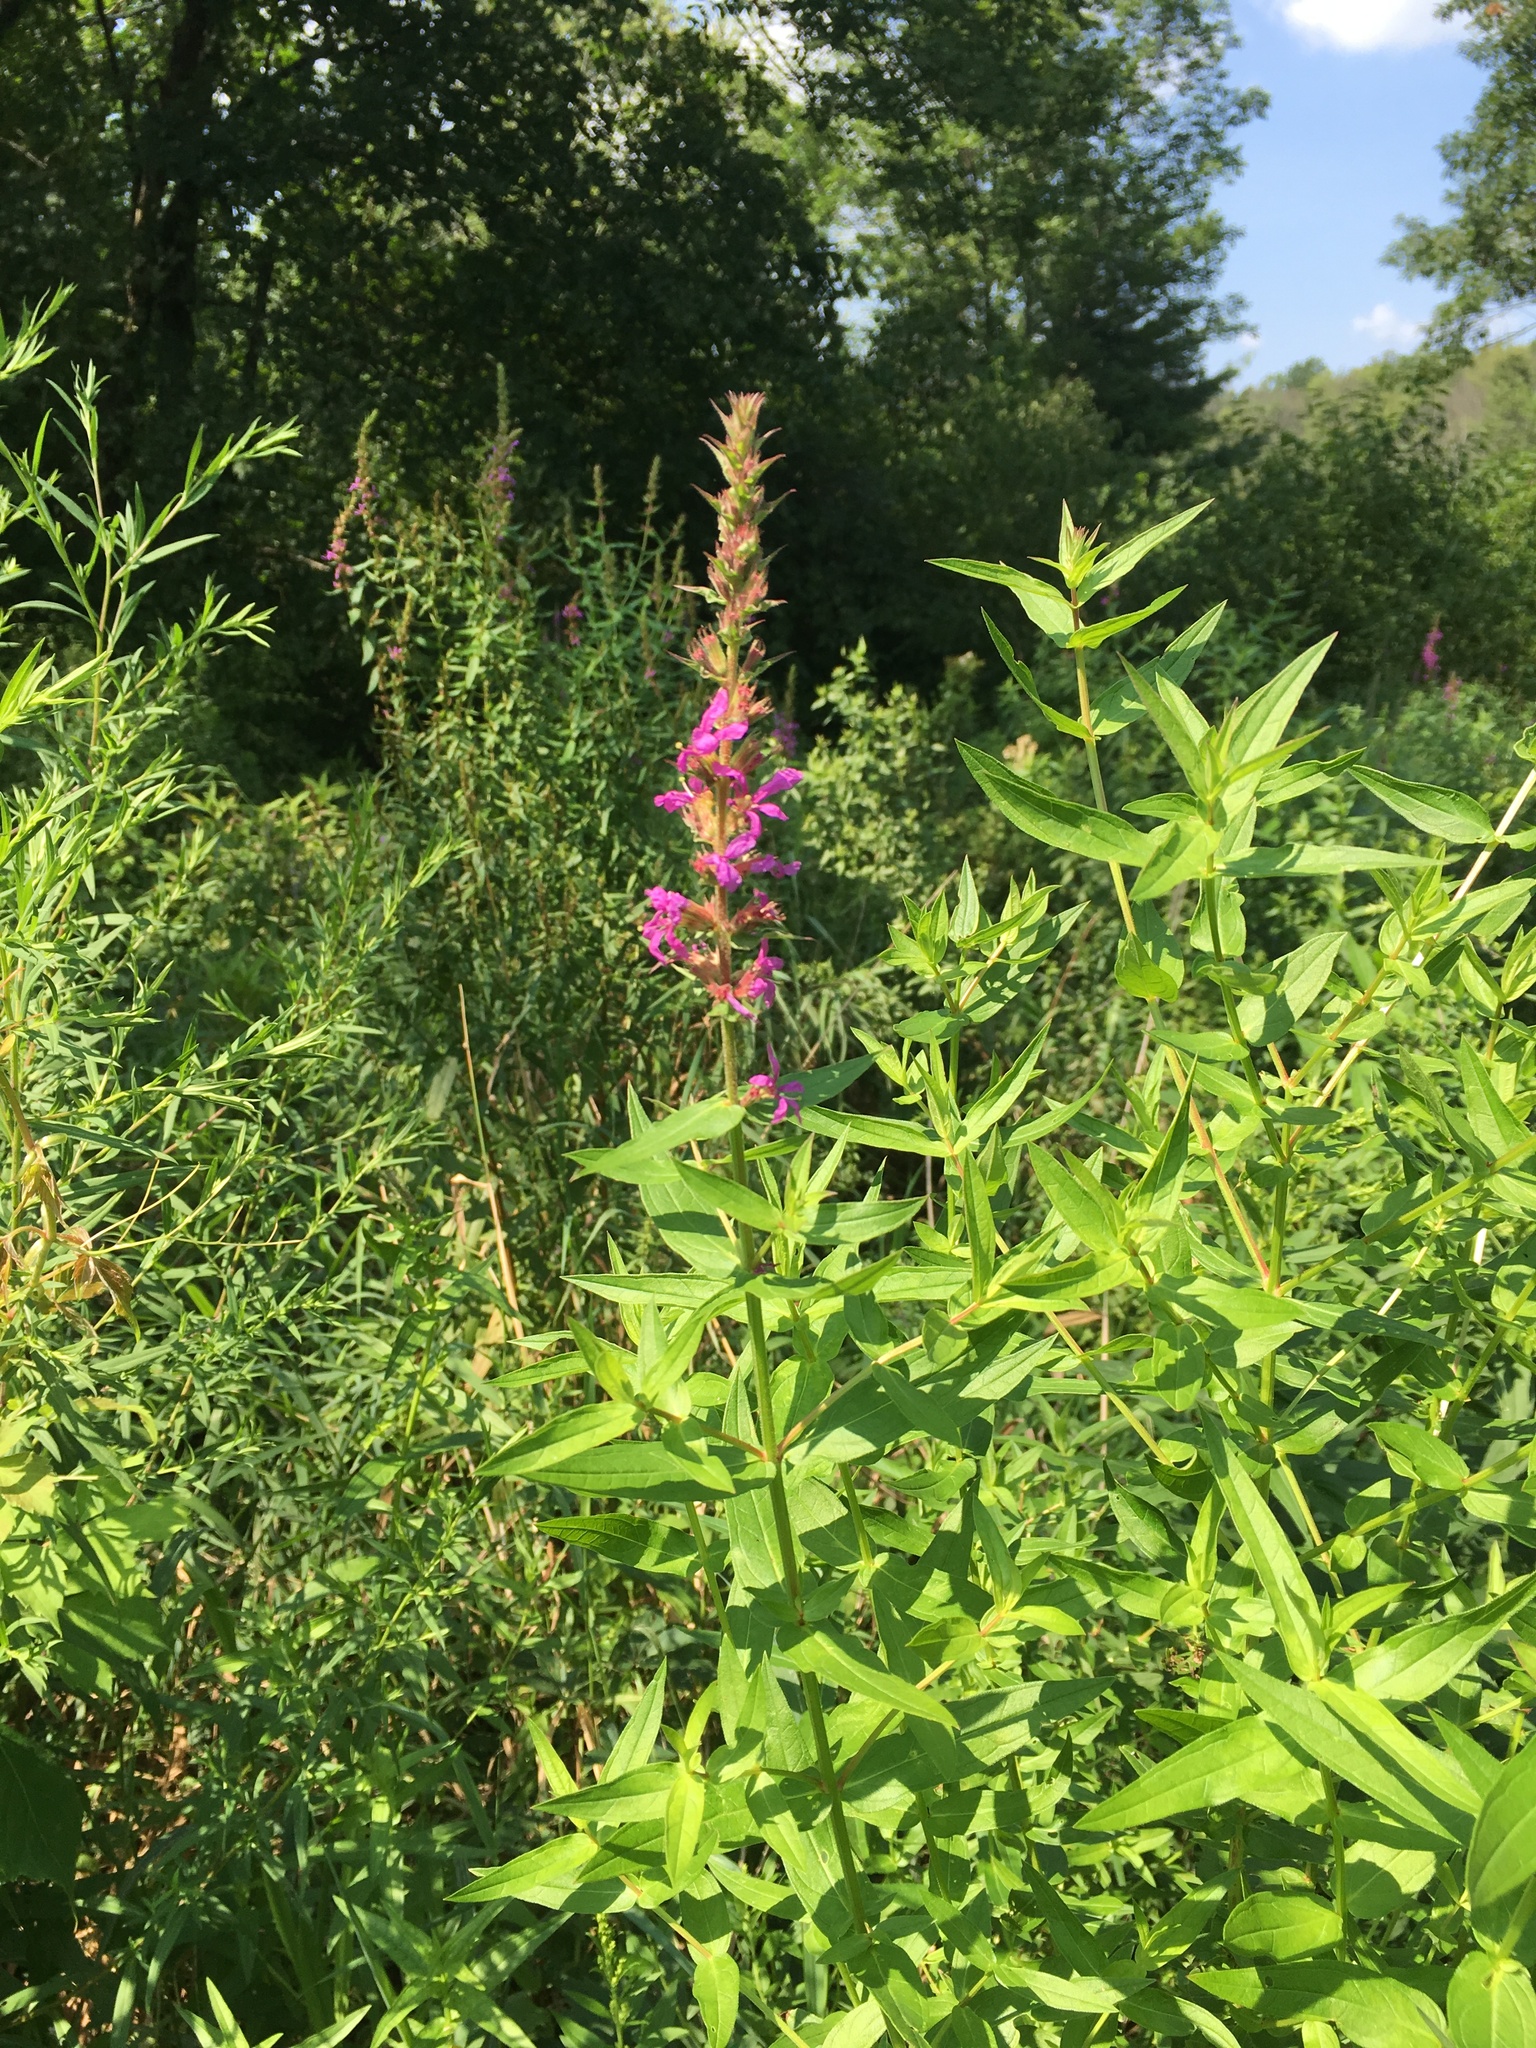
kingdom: Plantae
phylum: Tracheophyta
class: Magnoliopsida
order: Myrtales
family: Lythraceae
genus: Lythrum
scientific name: Lythrum salicaria
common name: Purple loosestrife
